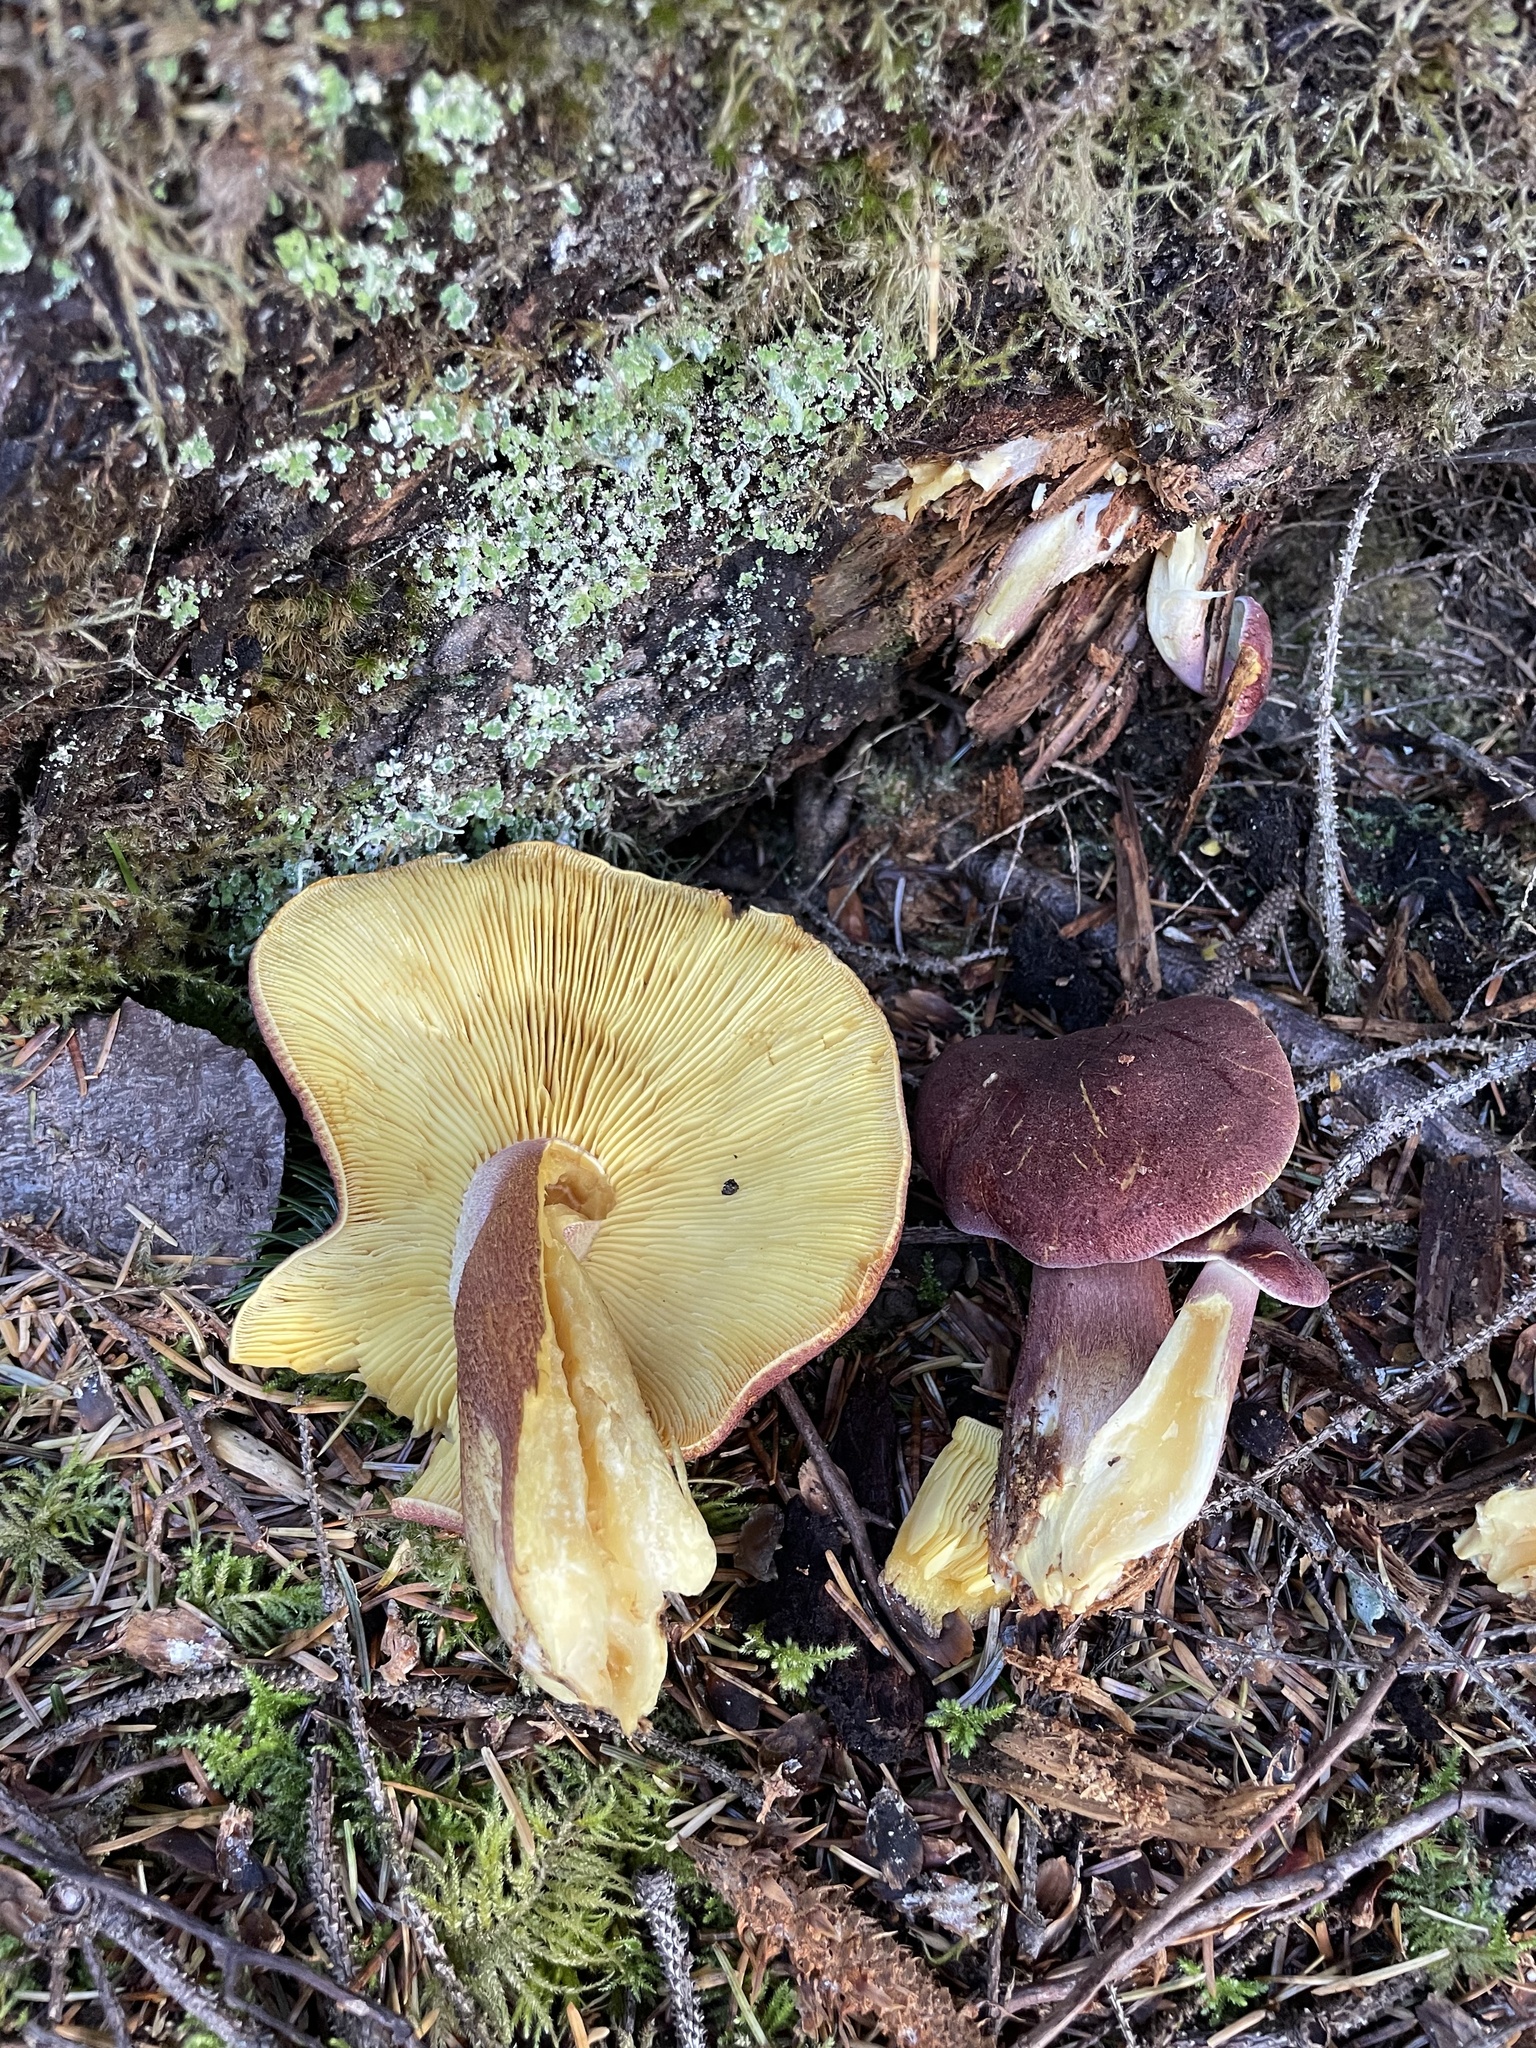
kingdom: Fungi
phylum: Basidiomycota
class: Agaricomycetes
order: Agaricales
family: Tricholomataceae
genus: Tricholomopsis
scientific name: Tricholomopsis rutilans
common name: Plums and custard
